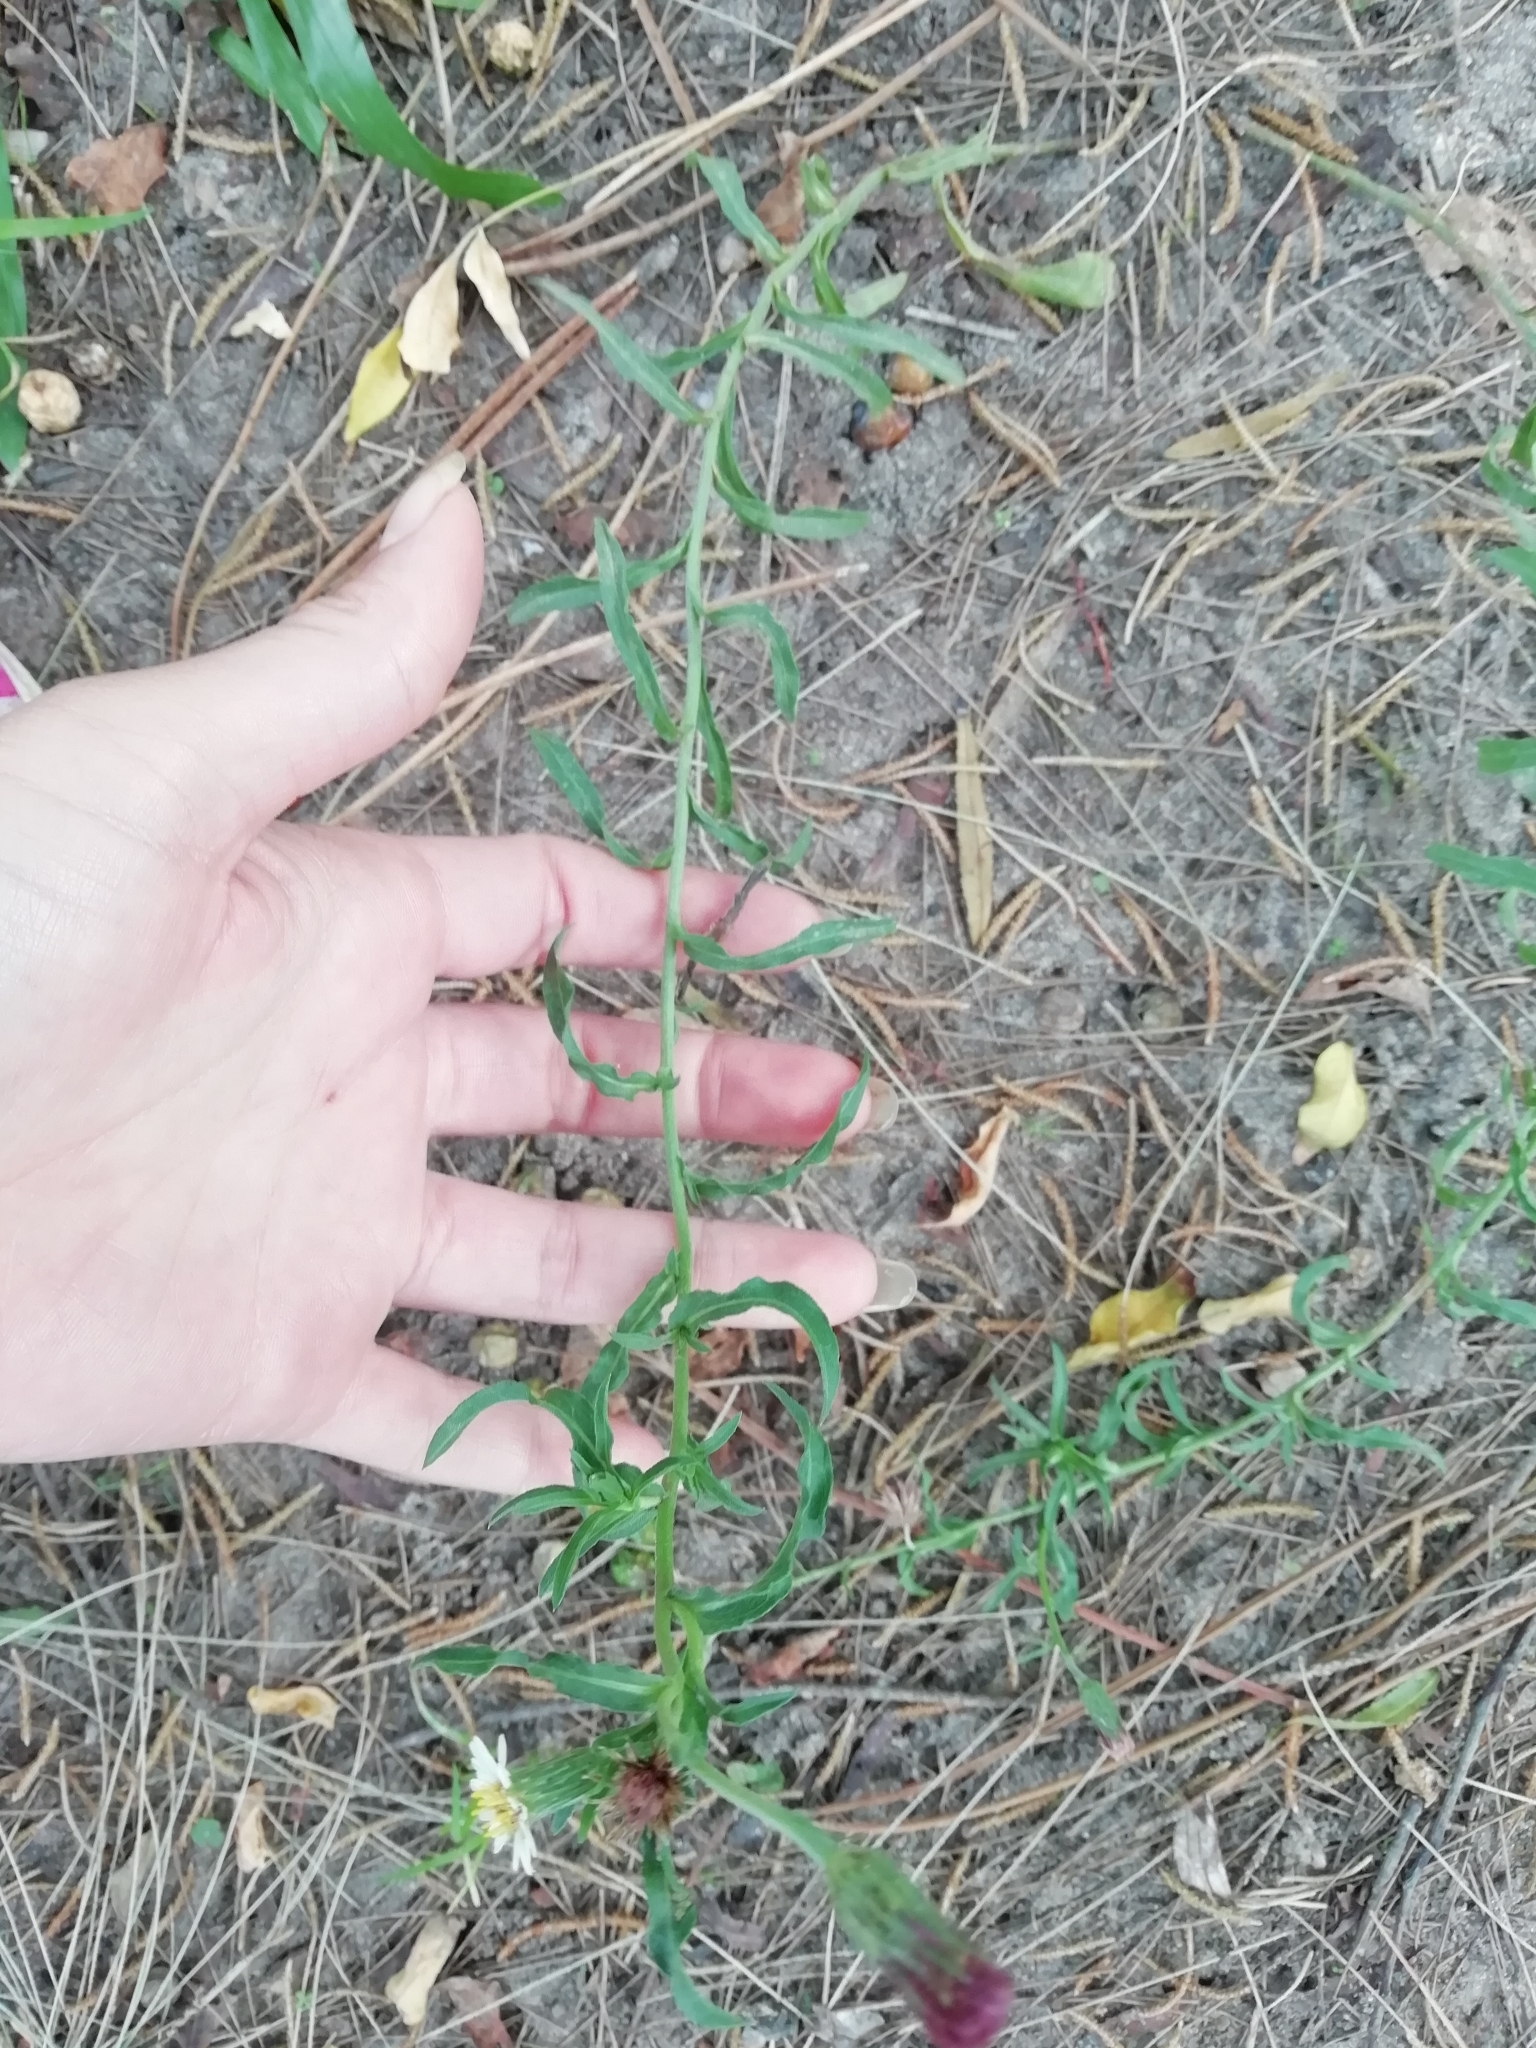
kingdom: Plantae
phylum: Tracheophyta
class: Magnoliopsida
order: Asterales
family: Asteraceae
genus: Noticastrum
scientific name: Noticastrum diffusum
